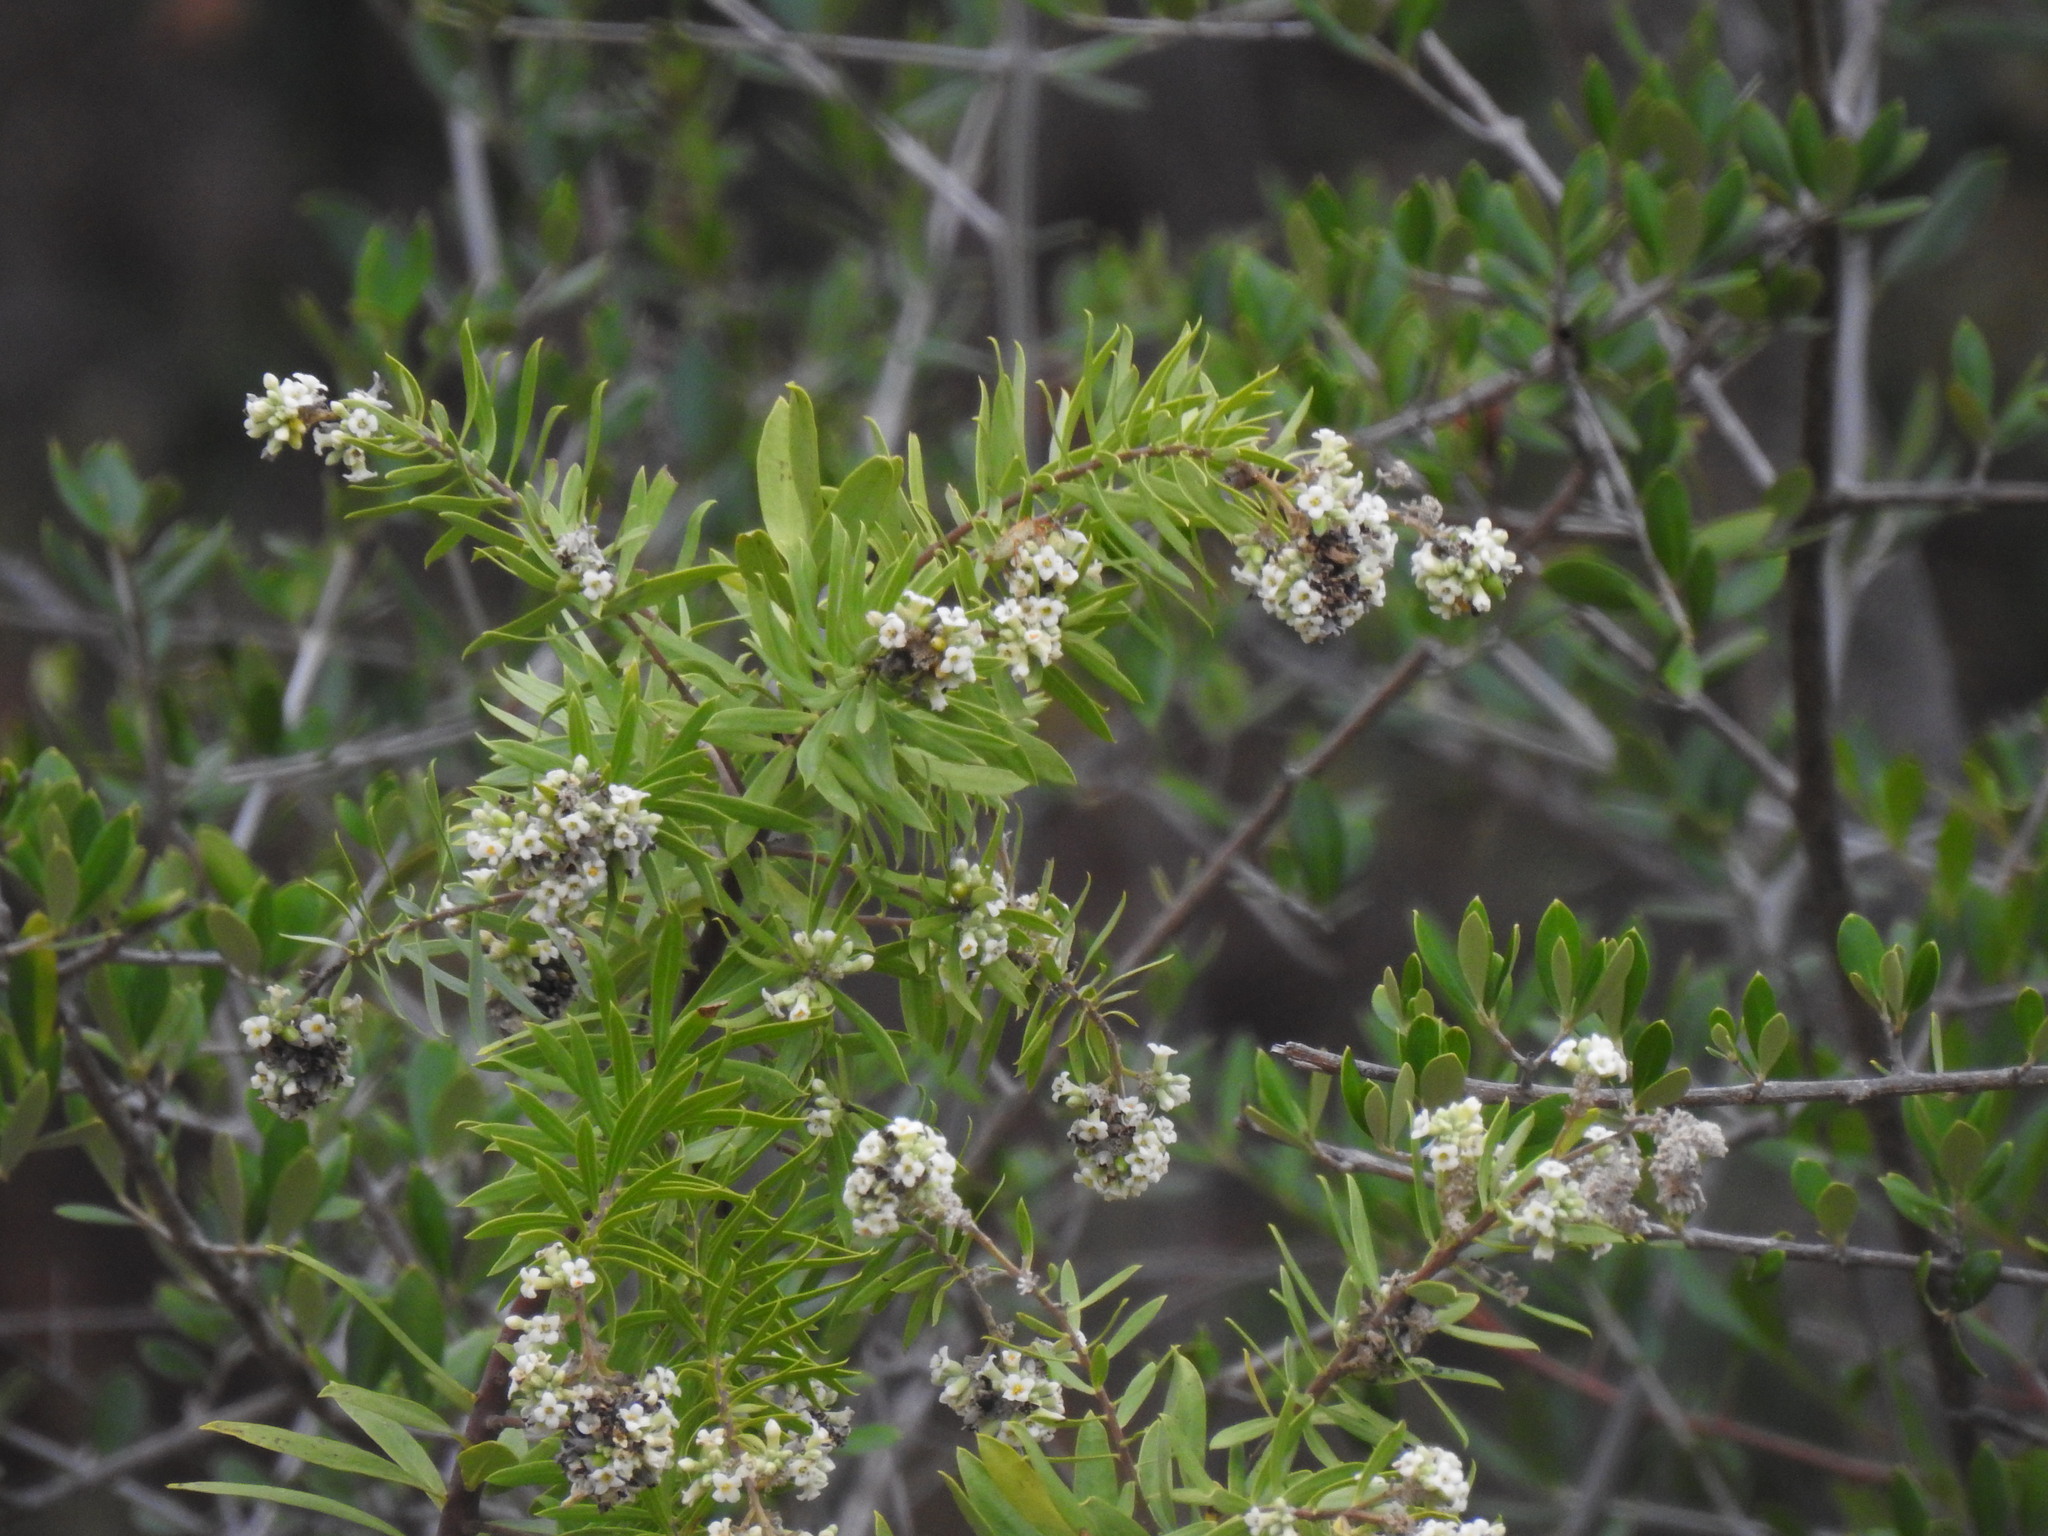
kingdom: Plantae
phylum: Tracheophyta
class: Magnoliopsida
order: Malvales
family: Thymelaeaceae
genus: Daphne
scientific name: Daphne gnidium
